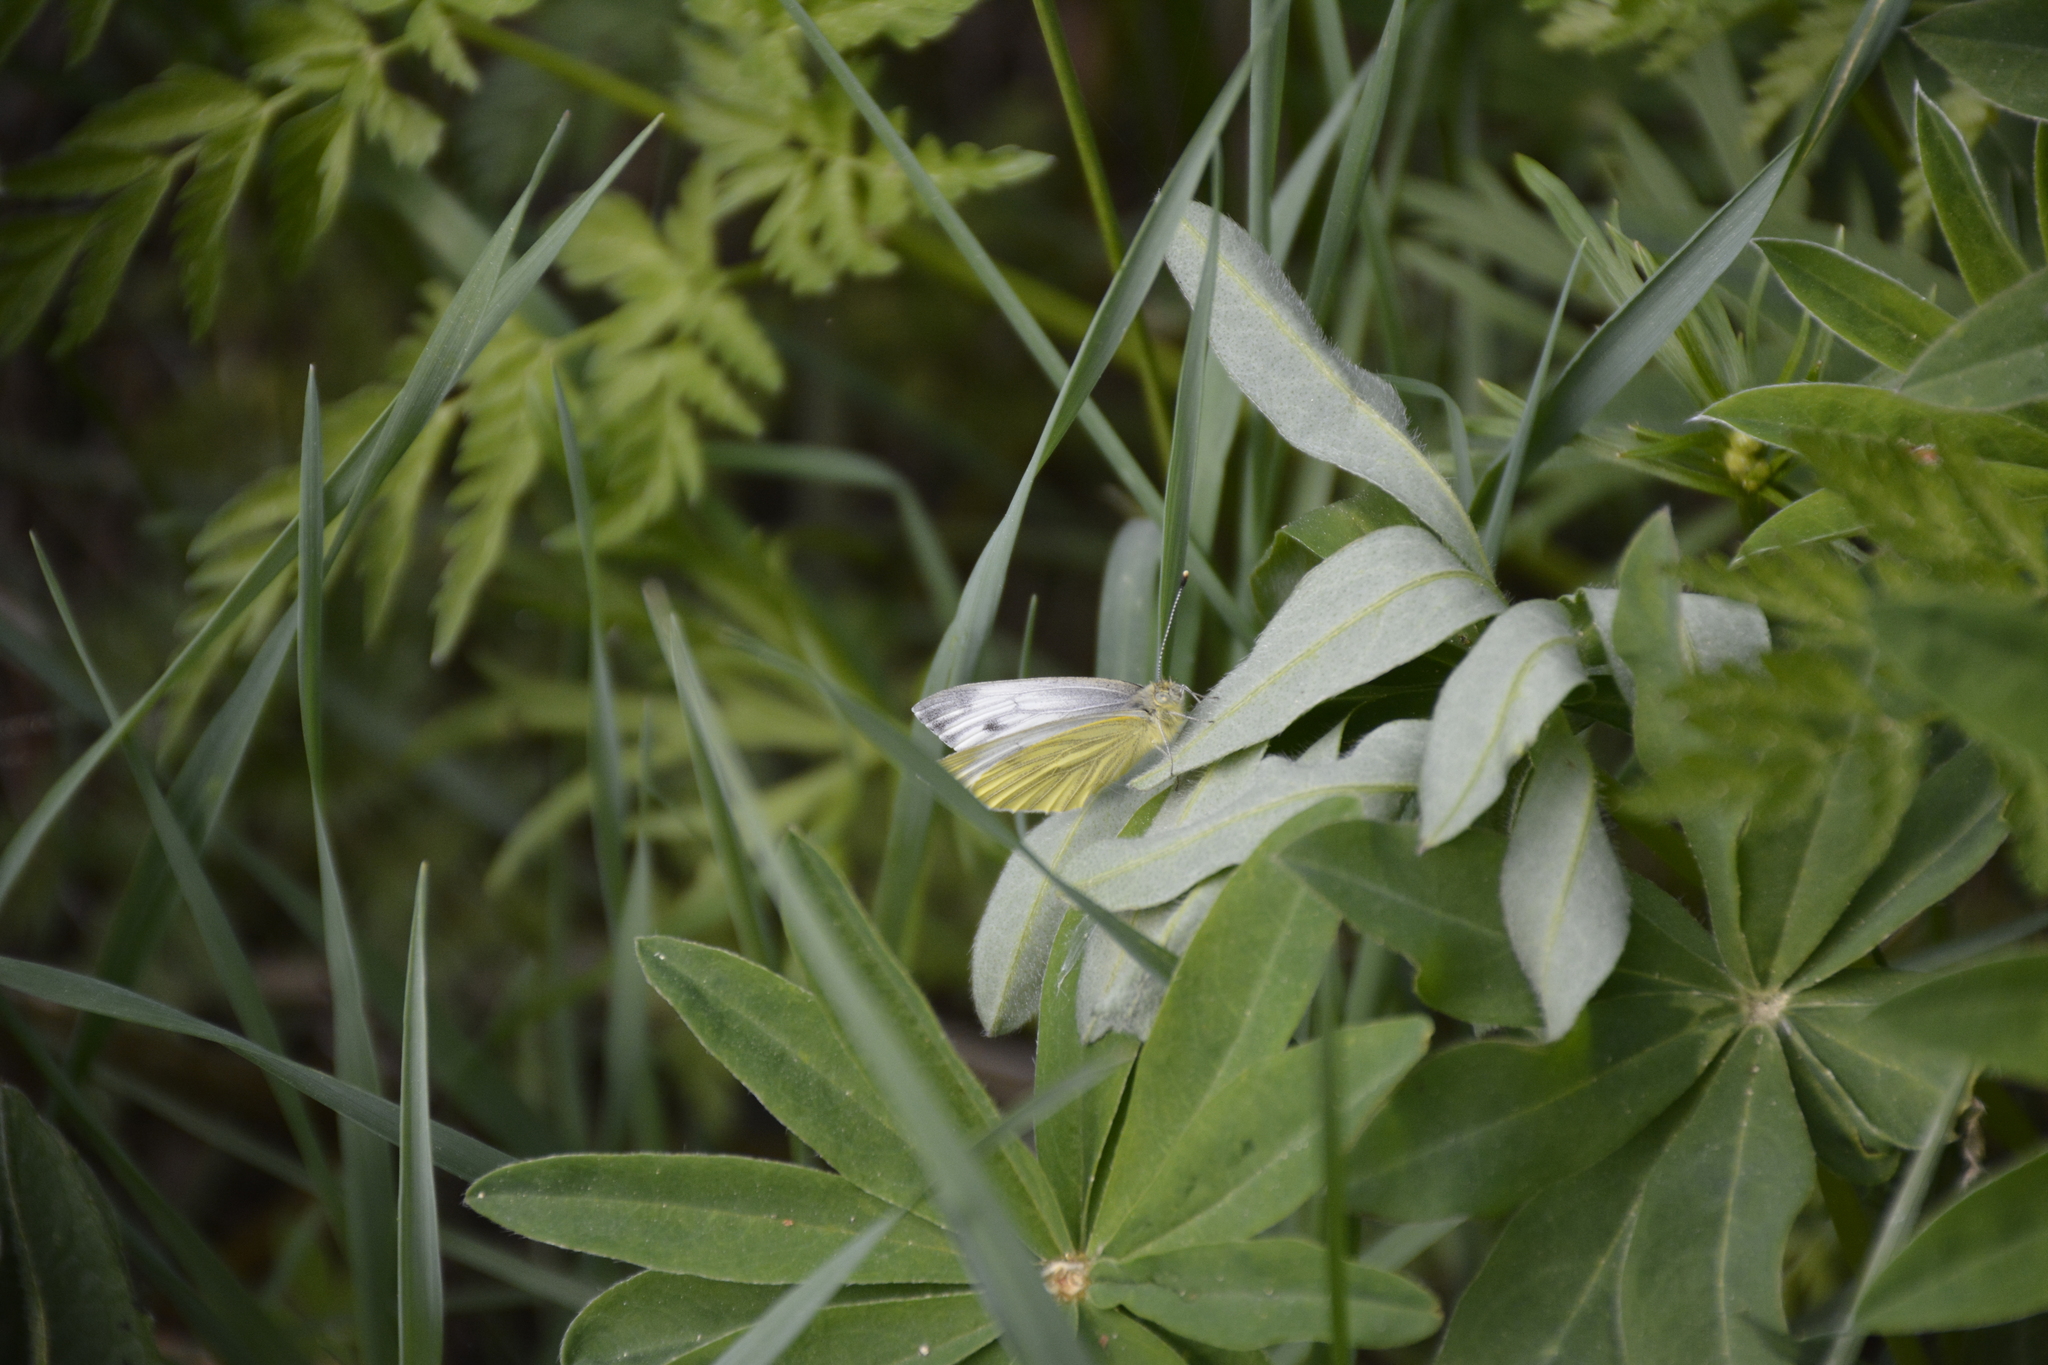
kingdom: Animalia
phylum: Arthropoda
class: Insecta
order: Lepidoptera
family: Pieridae
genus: Pieris
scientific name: Pieris napi
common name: Green-veined white
